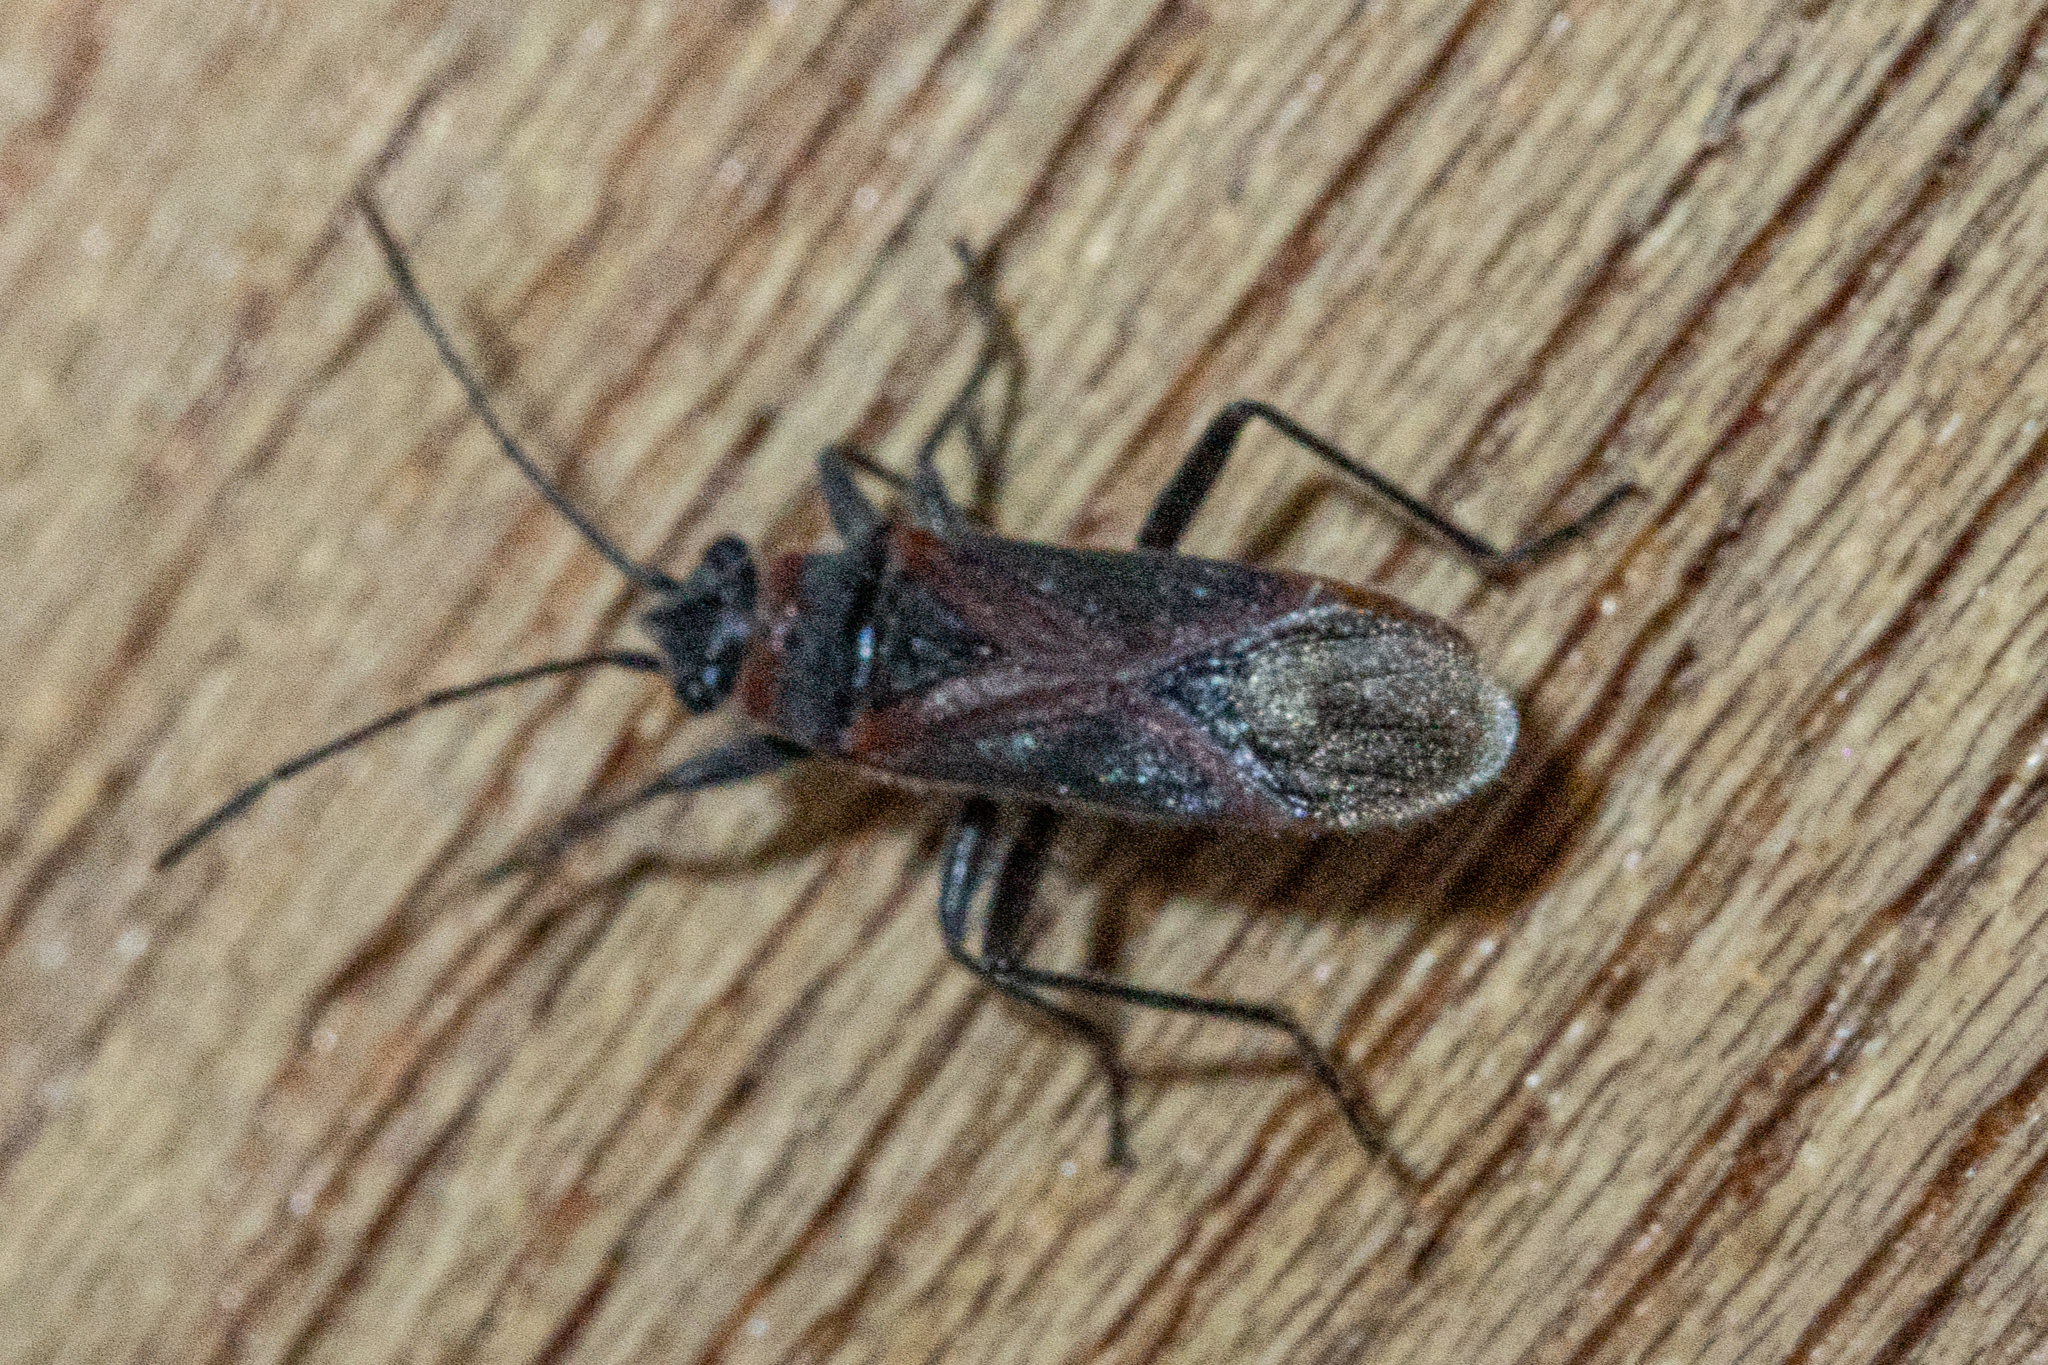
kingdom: Animalia
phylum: Arthropoda
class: Insecta
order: Hemiptera
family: Lygaeidae
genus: Arocatus
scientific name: Arocatus rusticus
